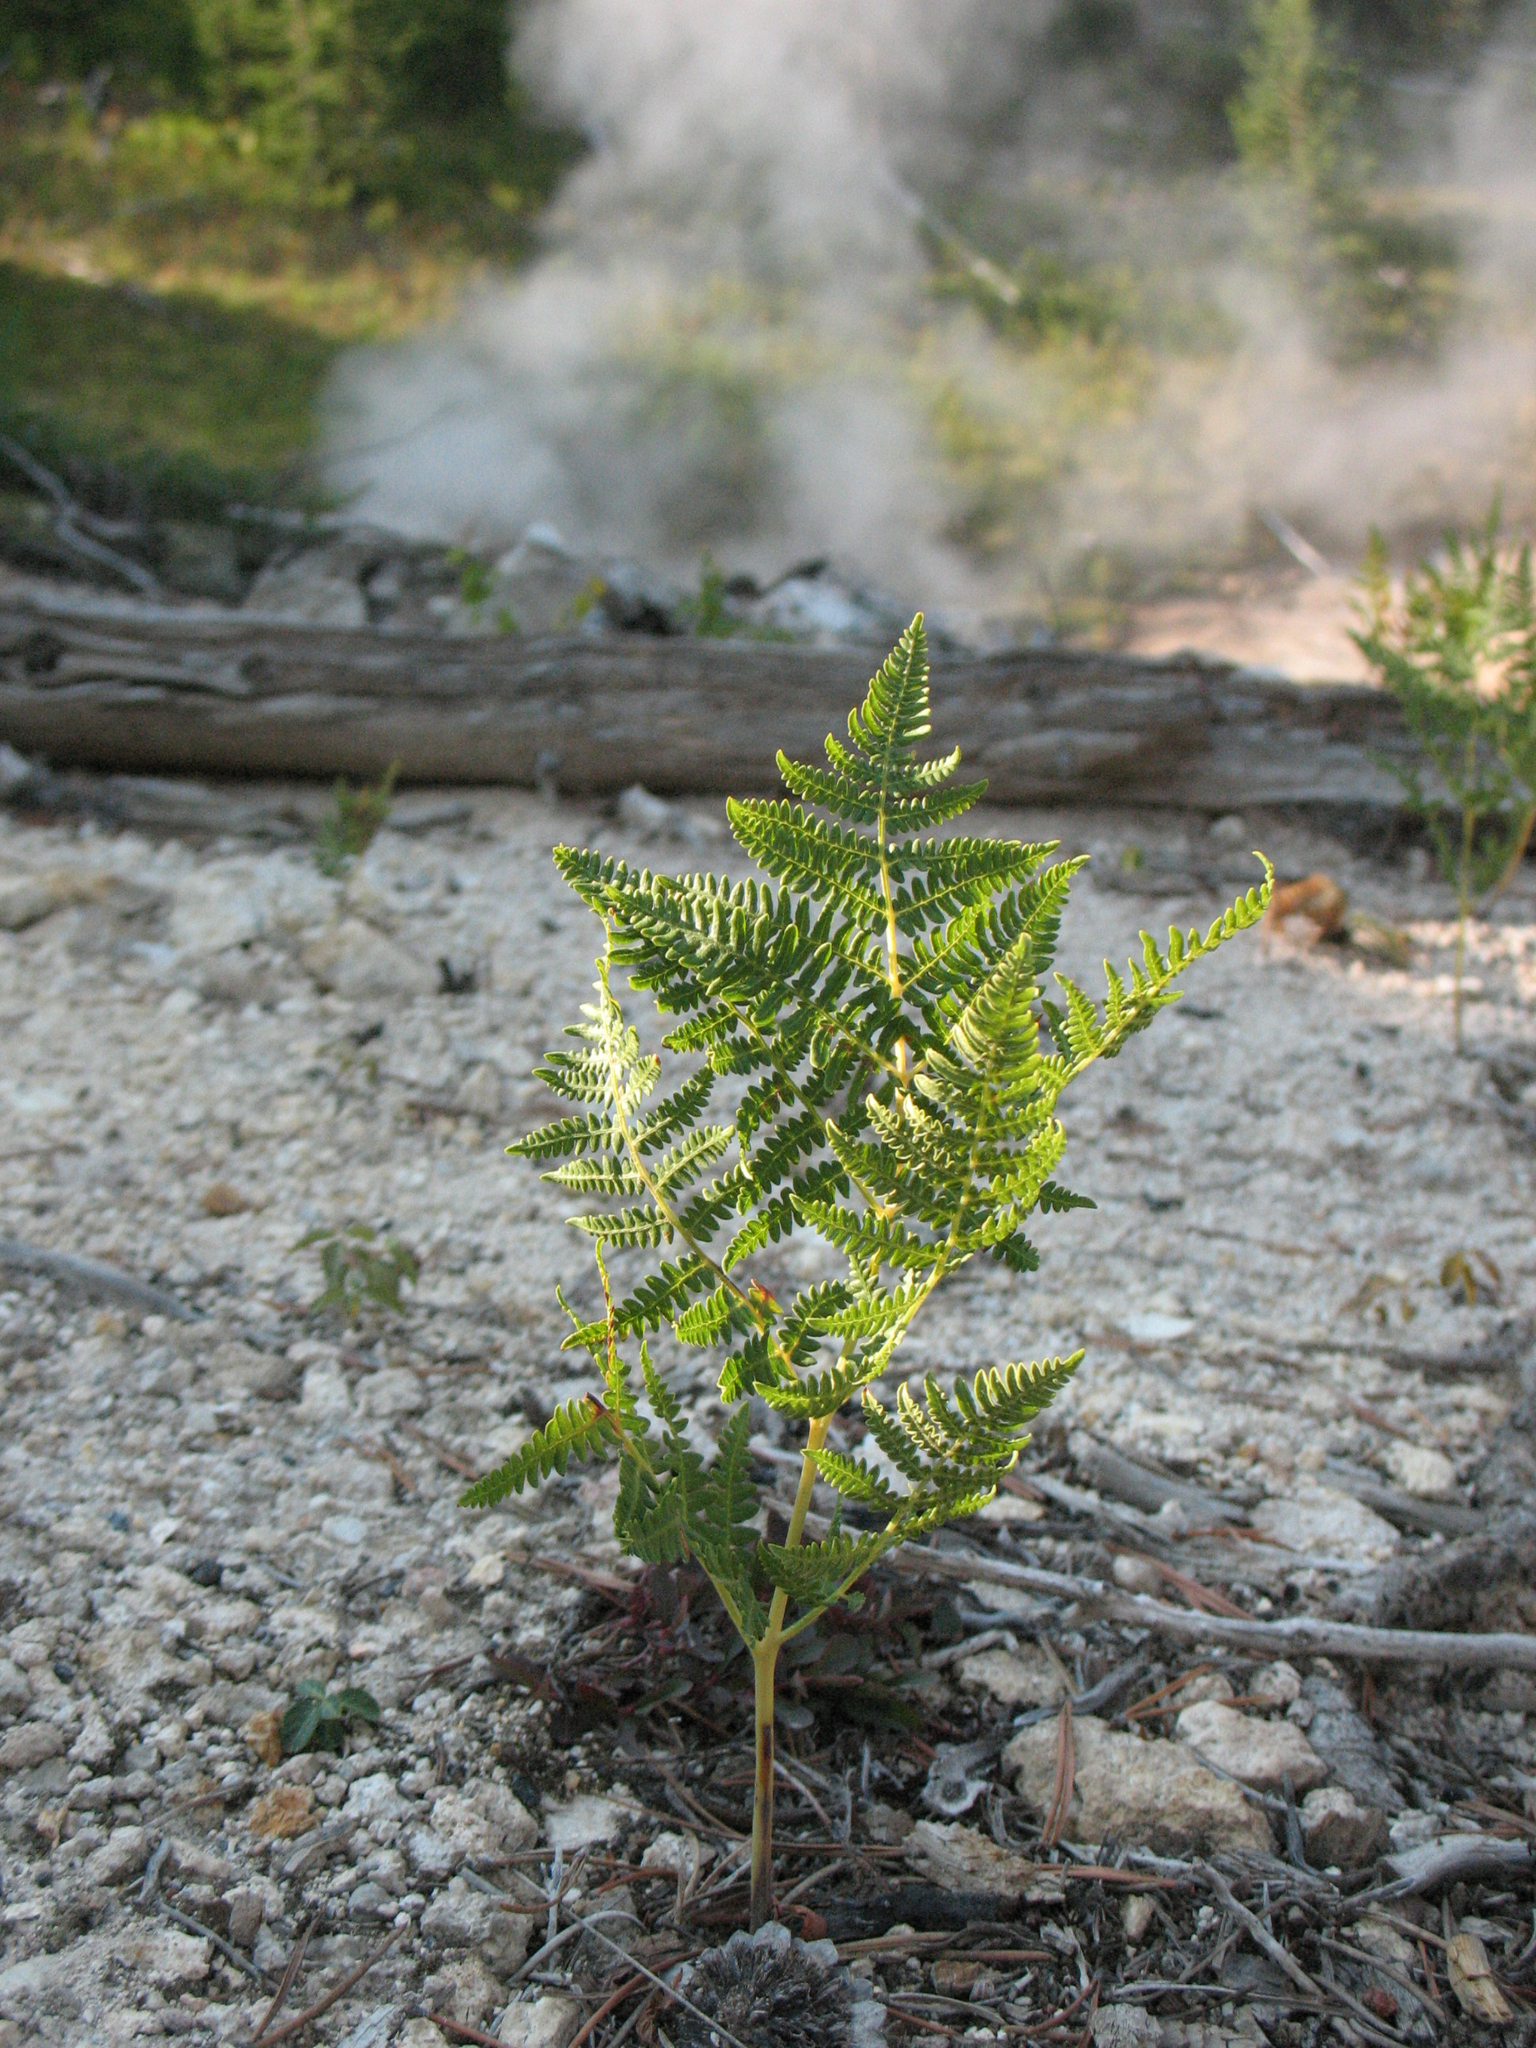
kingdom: Plantae
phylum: Tracheophyta
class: Polypodiopsida
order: Polypodiales
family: Dennstaedtiaceae
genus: Pteridium
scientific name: Pteridium aquilinum
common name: Bracken
